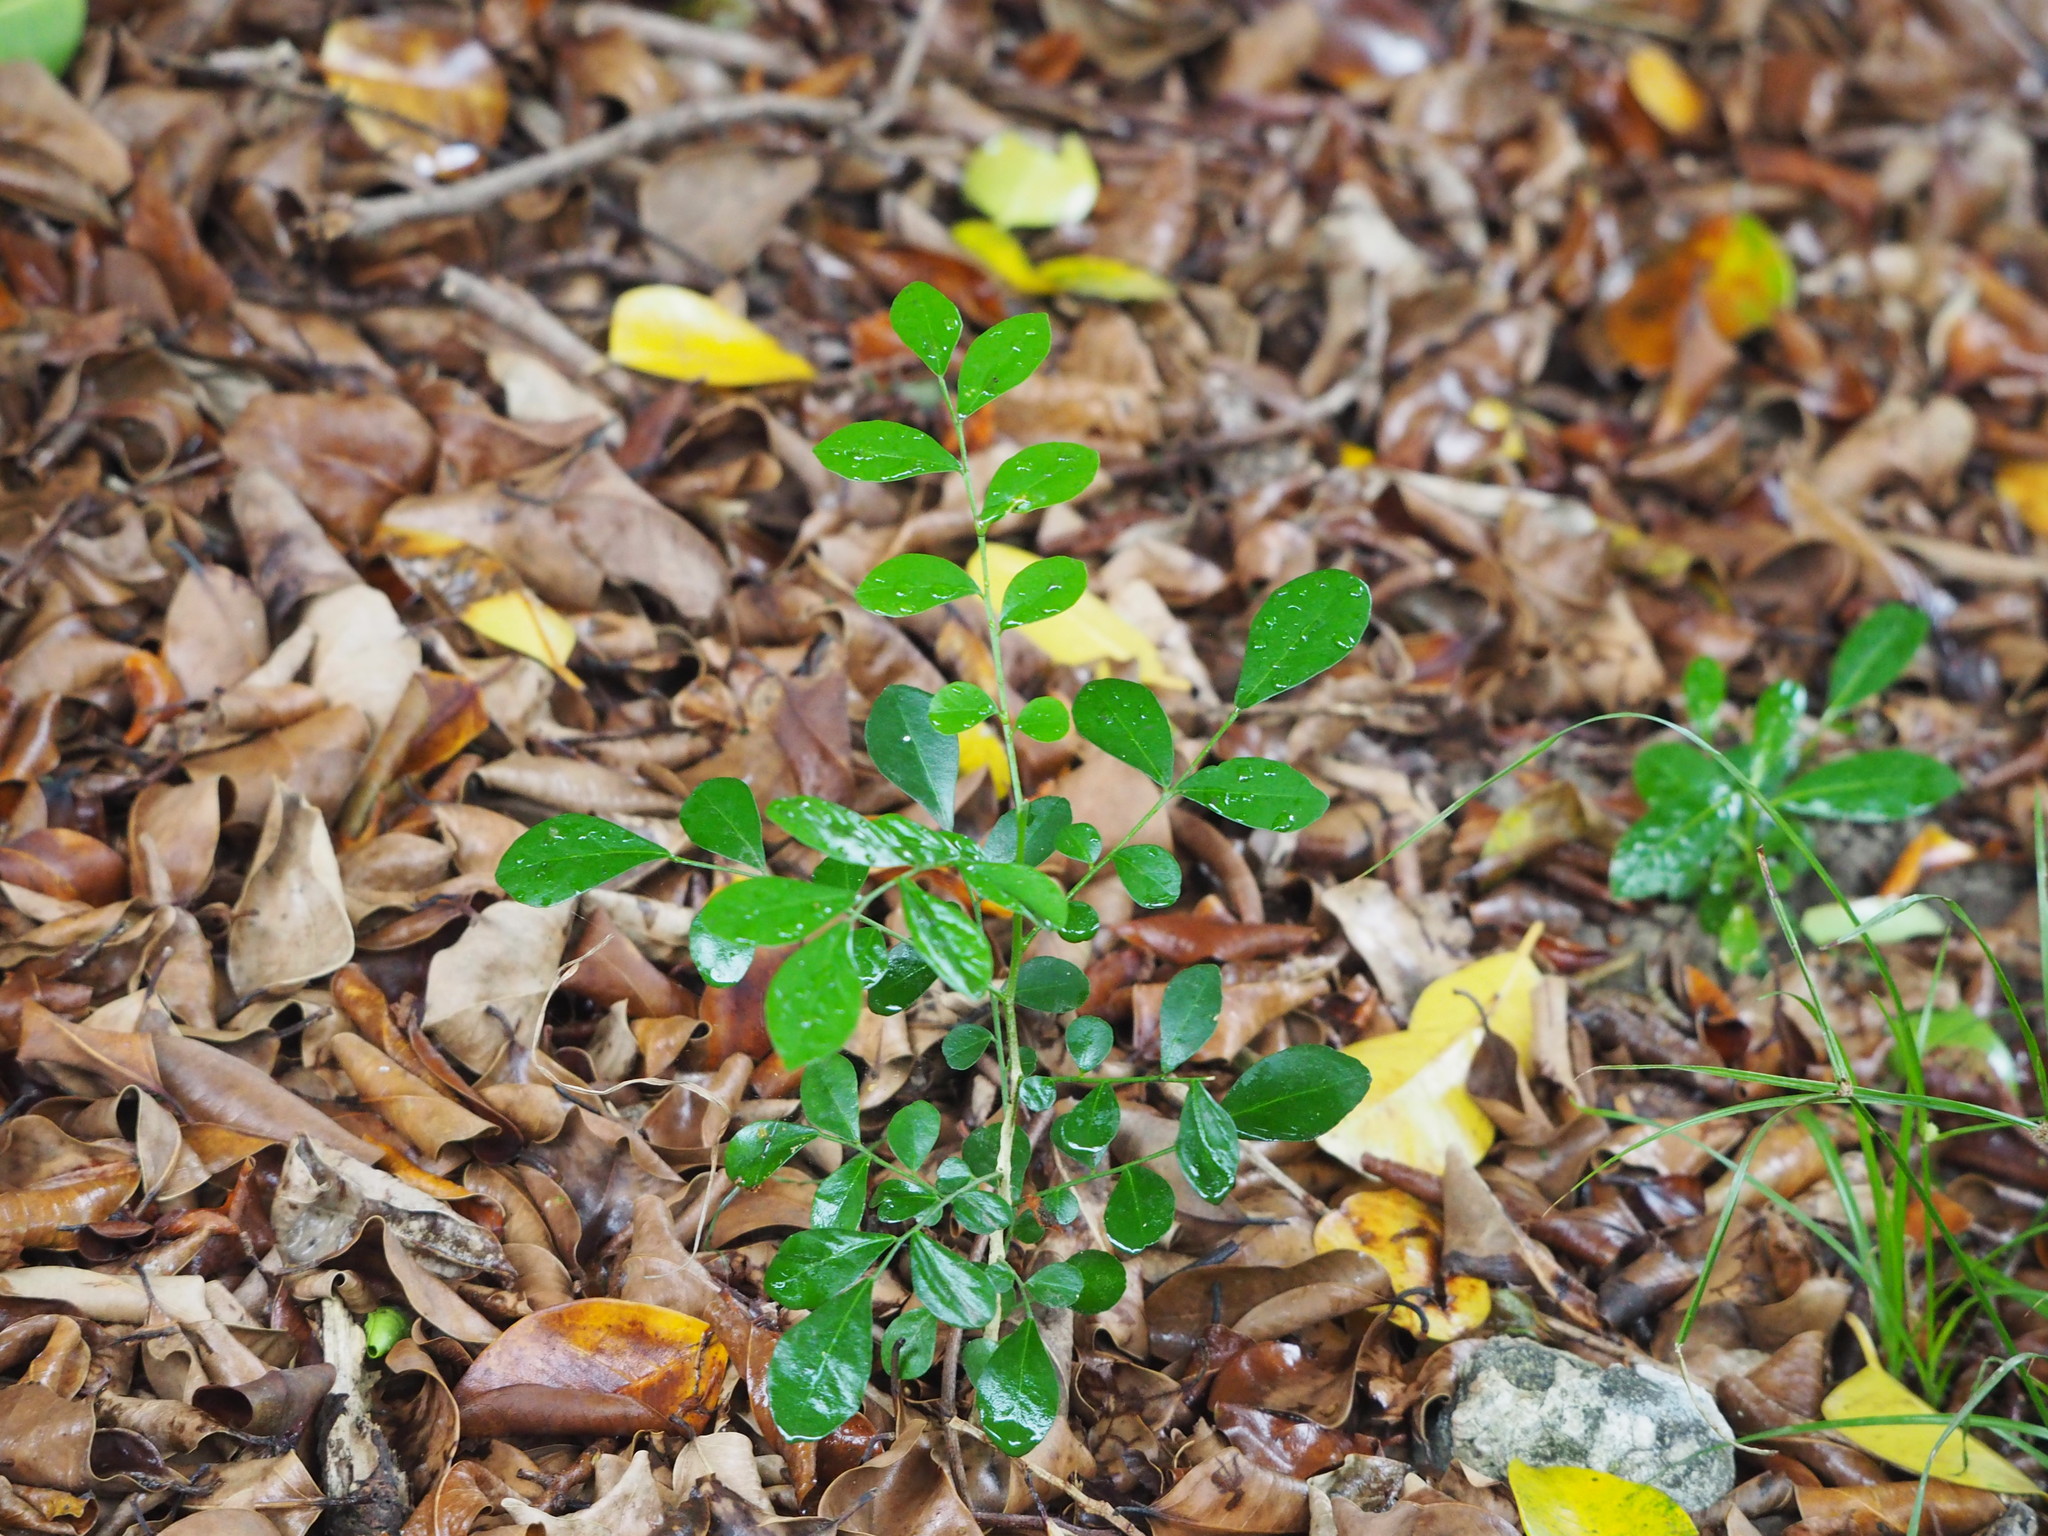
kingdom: Plantae
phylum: Tracheophyta
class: Magnoliopsida
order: Sapindales
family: Rutaceae
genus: Murraya
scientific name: Murraya paniculata
